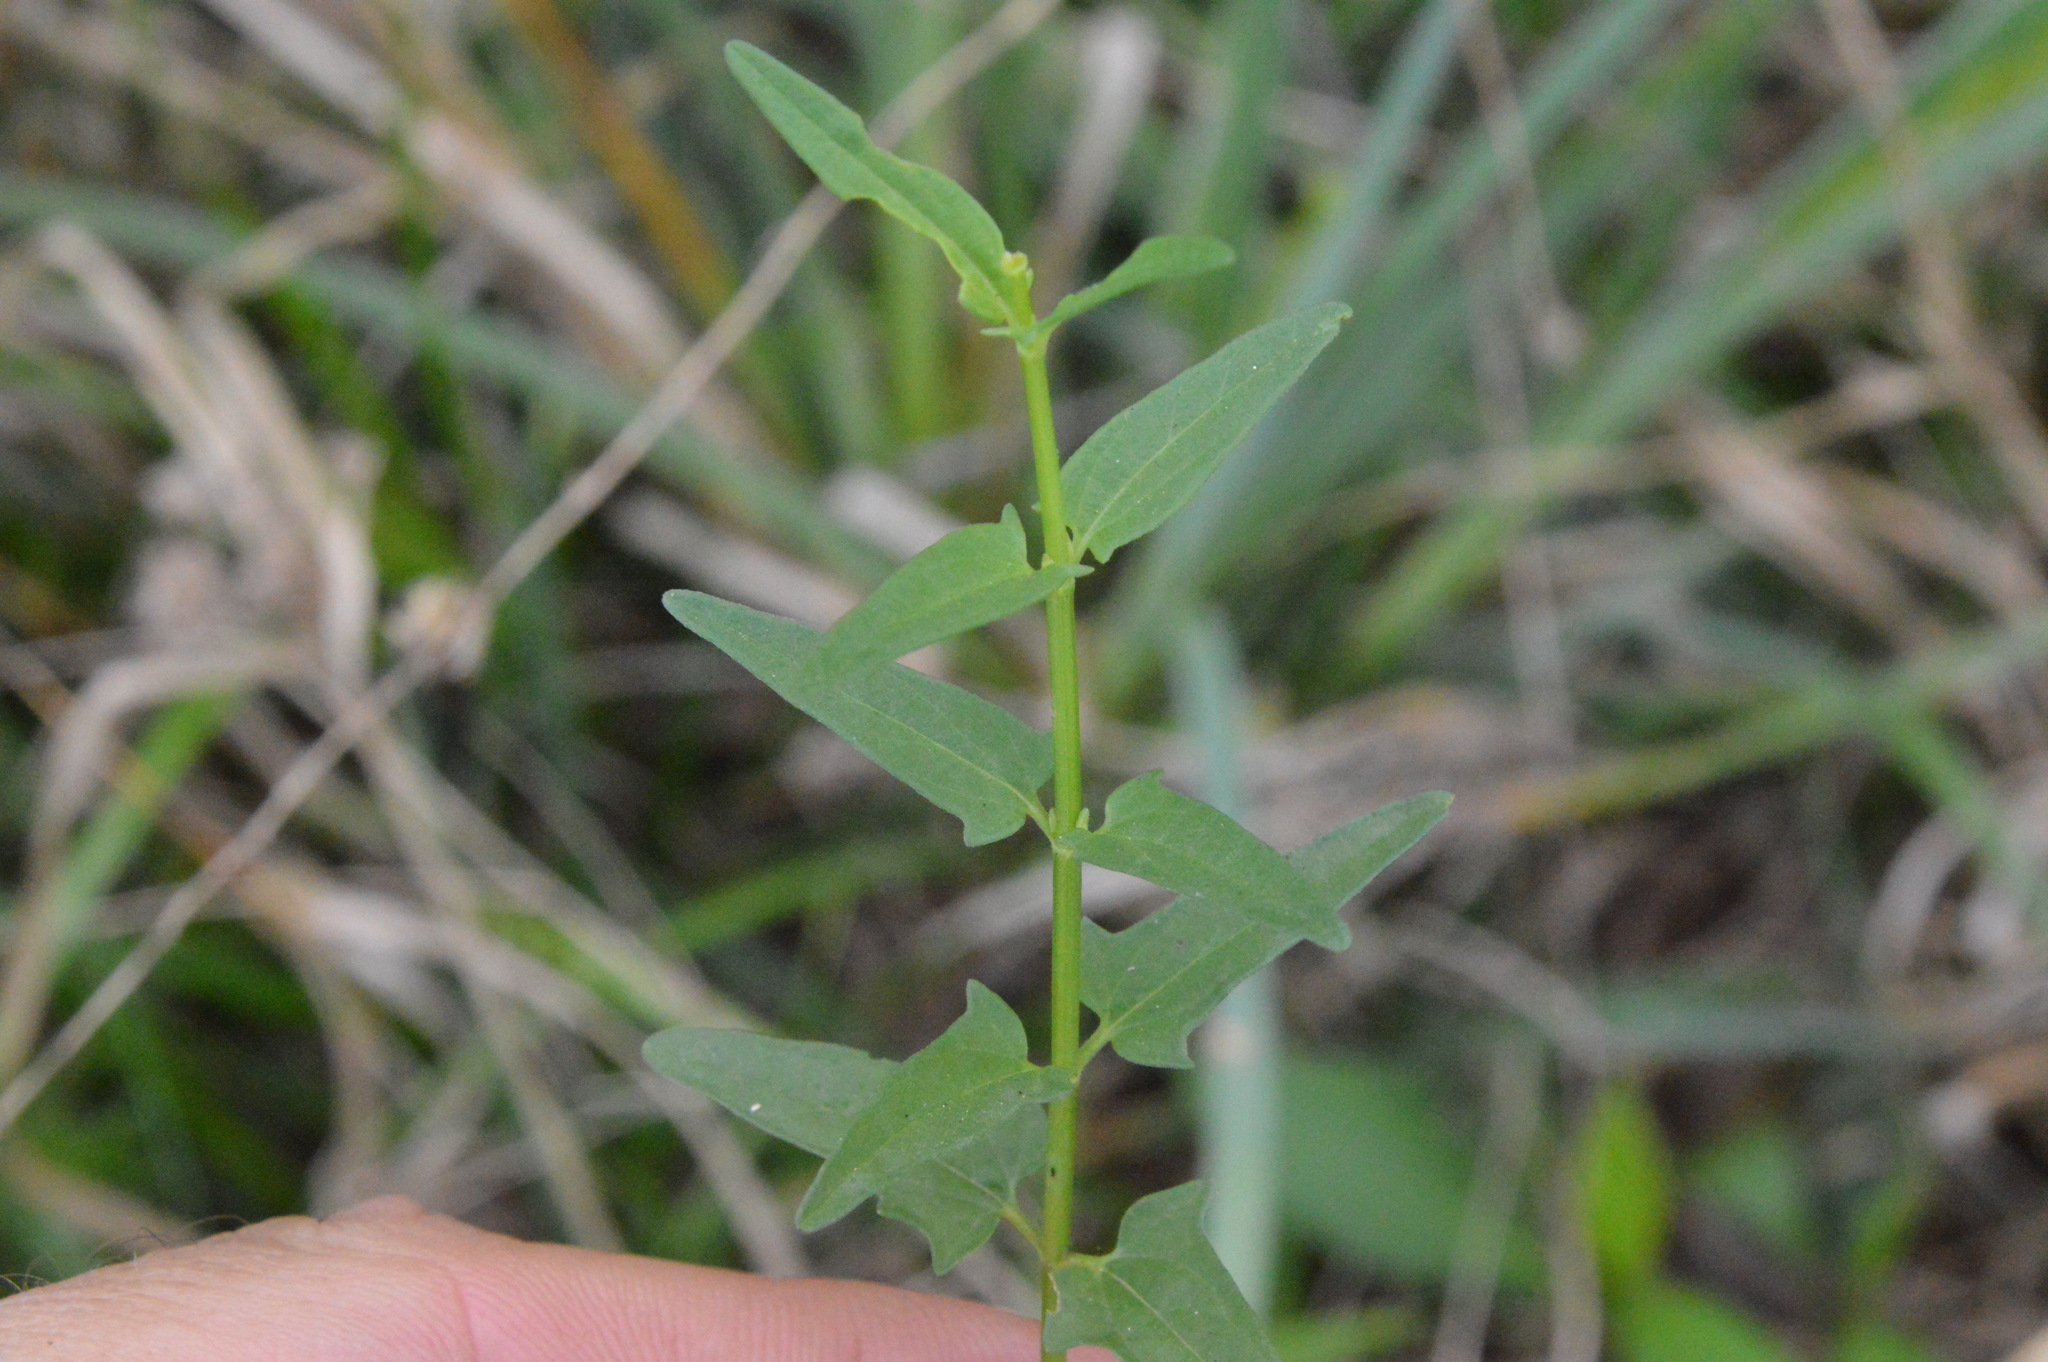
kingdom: Plantae
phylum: Tracheophyta
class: Magnoliopsida
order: Lamiales
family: Lamiaceae
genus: Scutellaria
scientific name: Scutellaria racemosa
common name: South american skullcap
